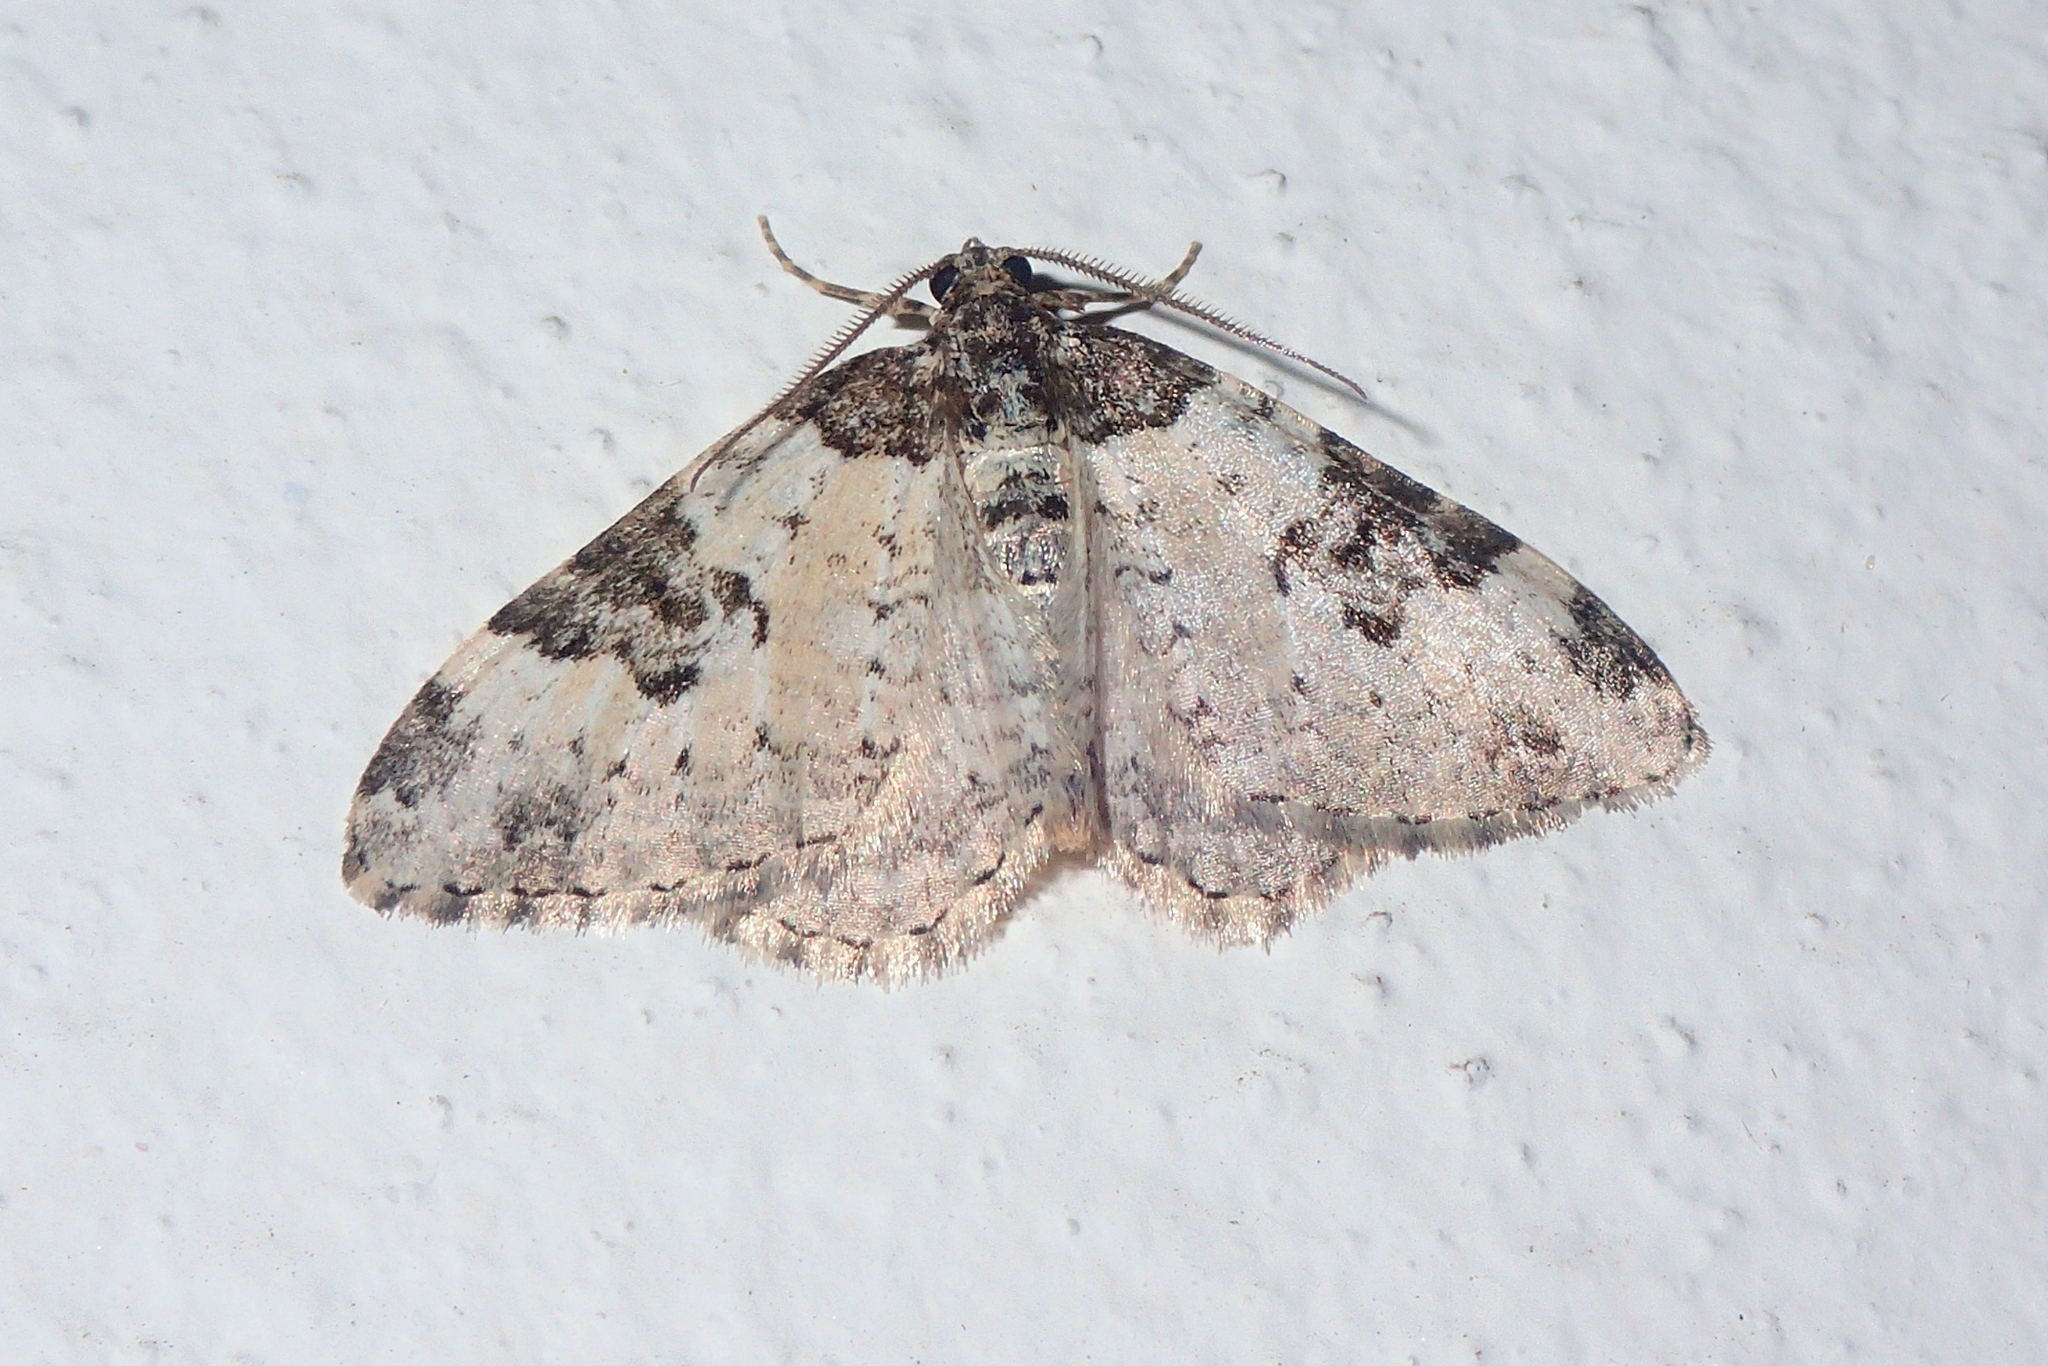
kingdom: Animalia
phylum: Arthropoda
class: Insecta
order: Lepidoptera
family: Geometridae
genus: Xanthorhoe
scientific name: Xanthorhoe fluctuata
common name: Garden carpet
